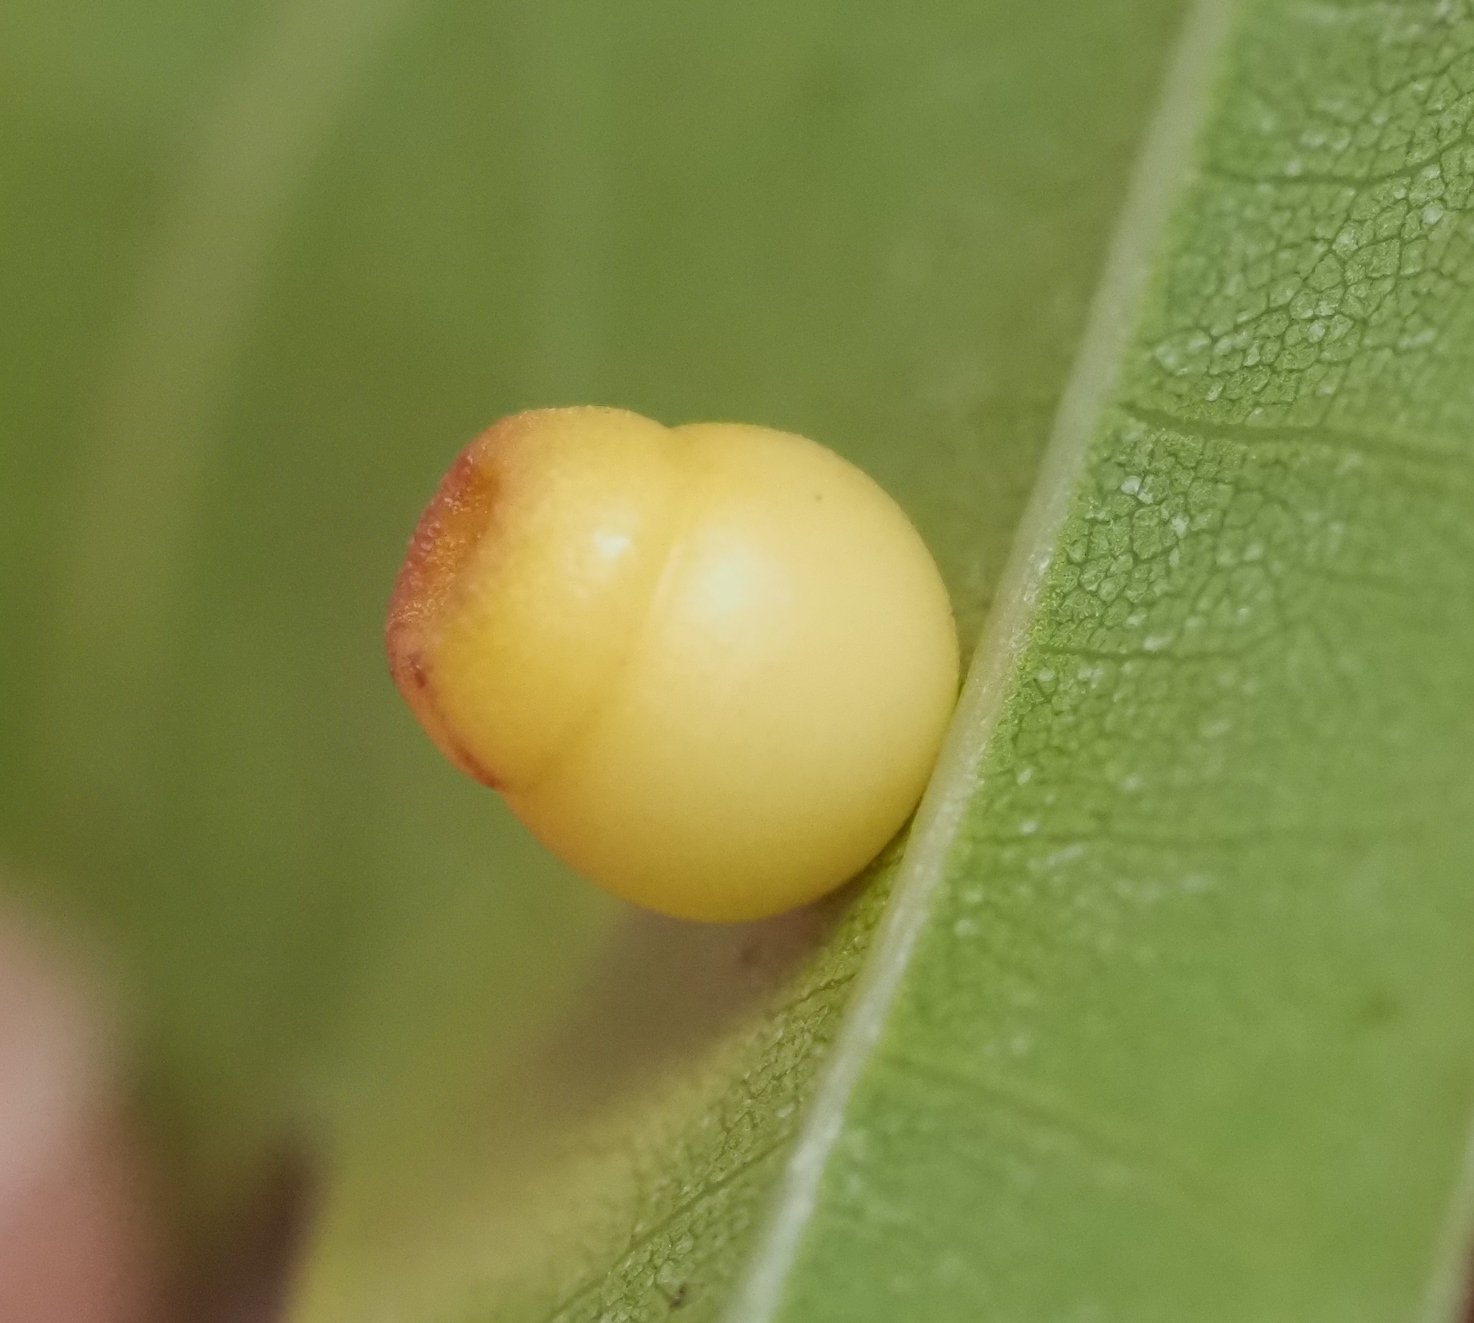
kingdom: Animalia
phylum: Arthropoda
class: Insecta
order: Hymenoptera
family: Cynipidae
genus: Kokkocynips
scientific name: Kokkocynips rileyi
